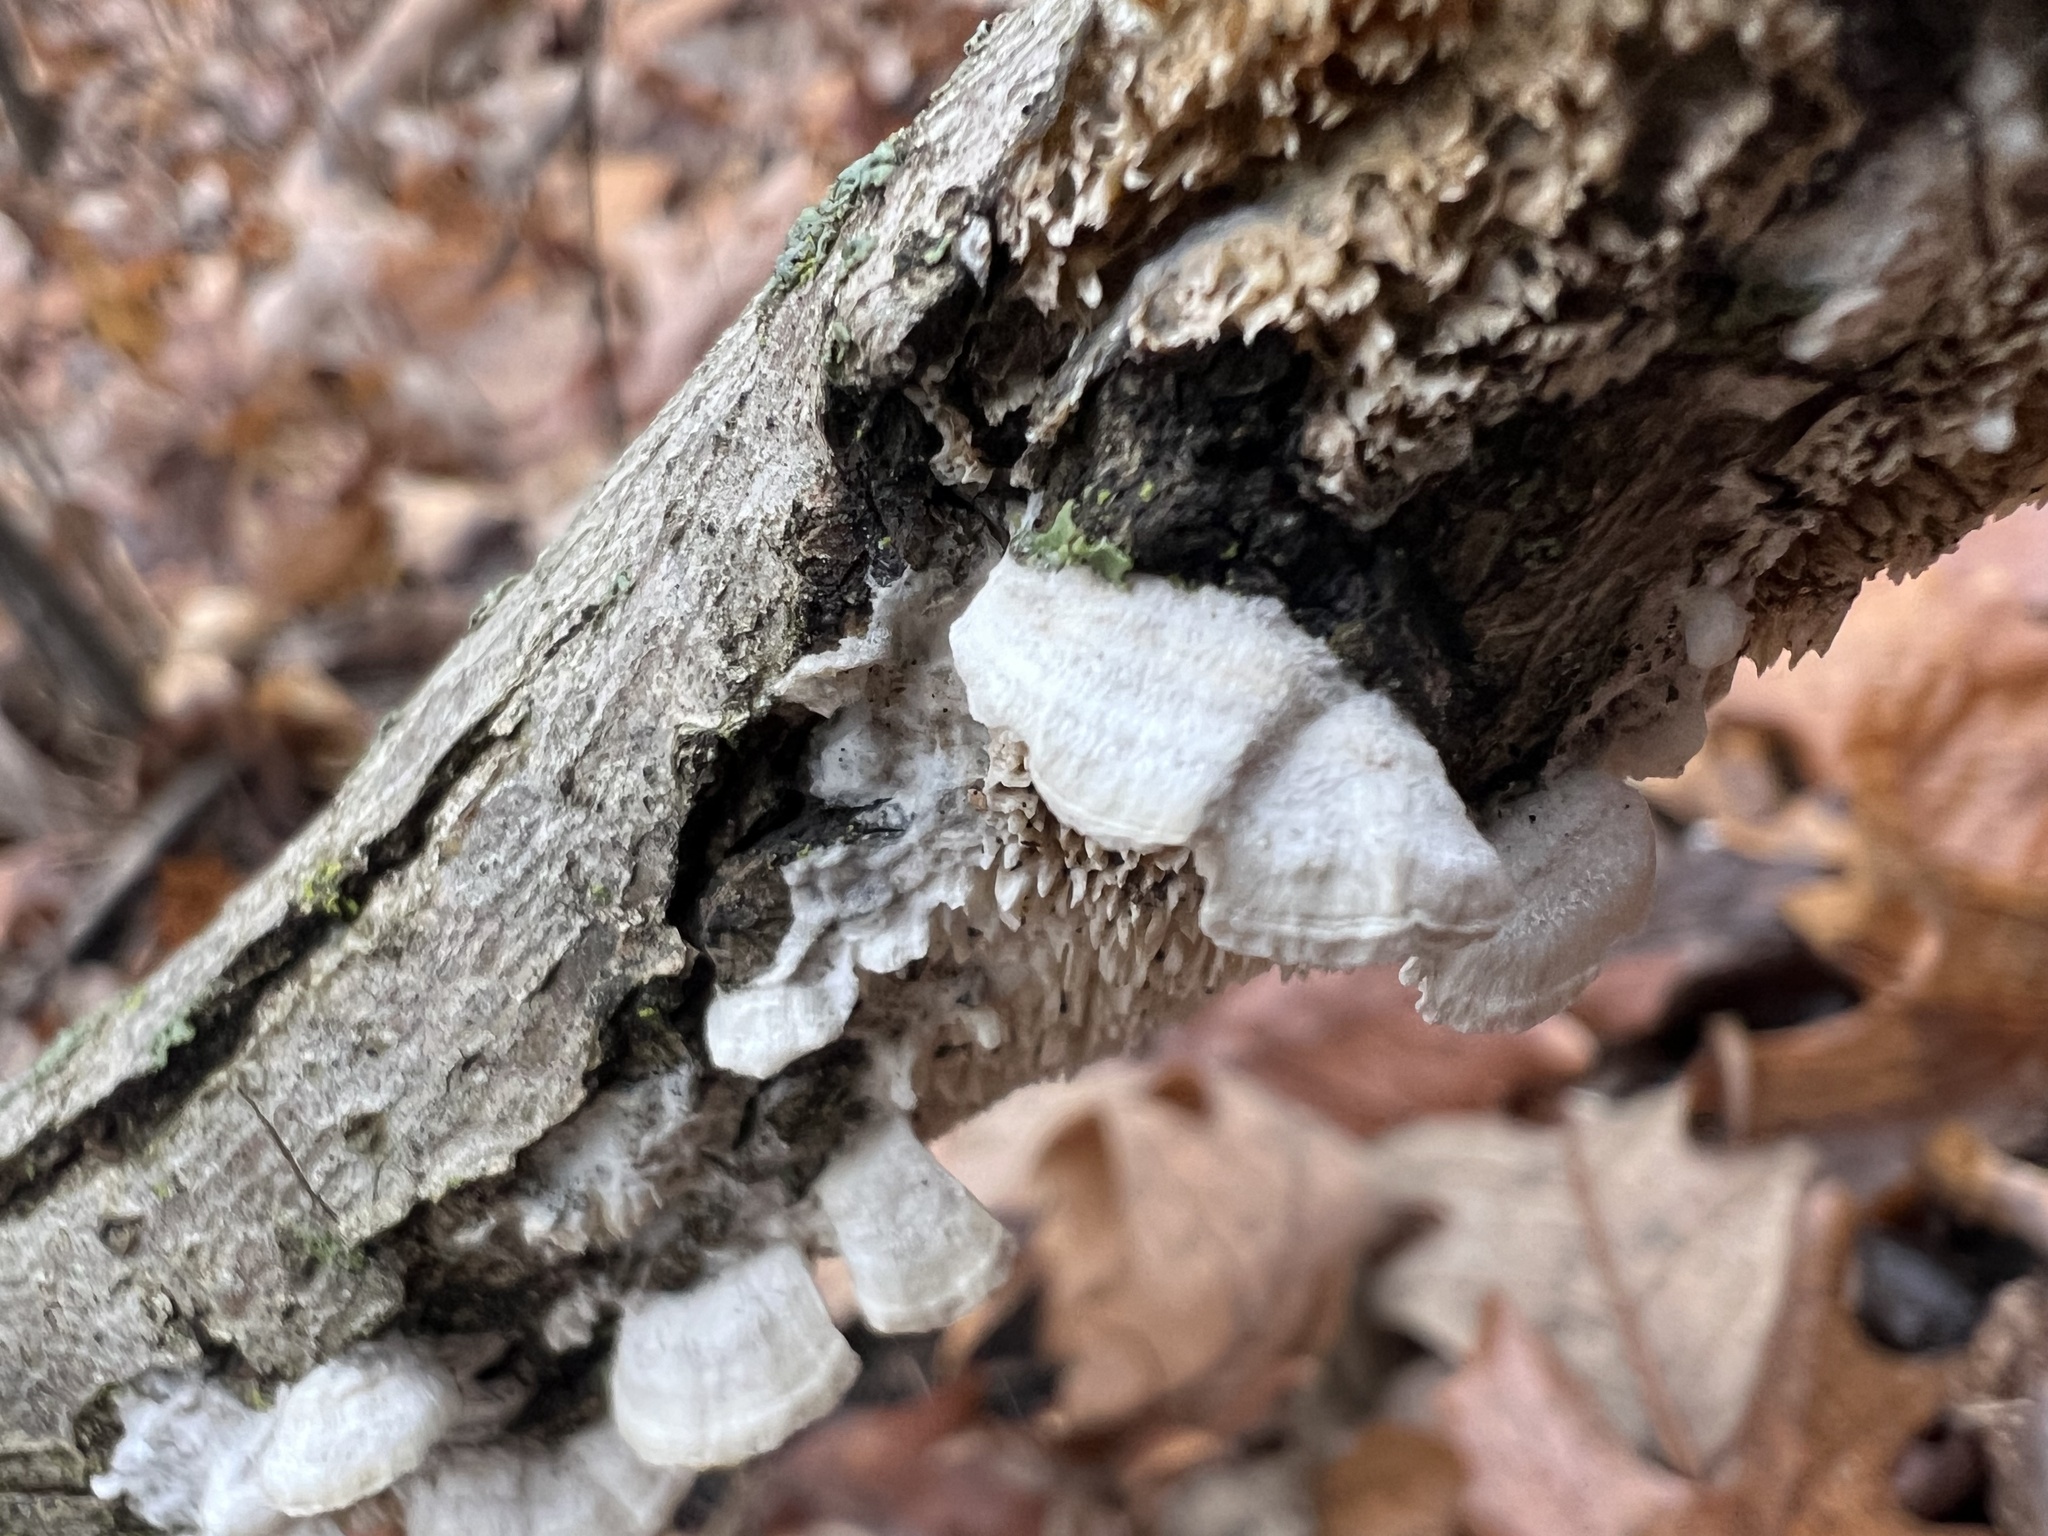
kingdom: Fungi
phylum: Basidiomycota
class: Agaricomycetes
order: Polyporales
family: Irpicaceae
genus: Irpex
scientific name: Irpex lacteus
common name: Milk-white toothed polypore
